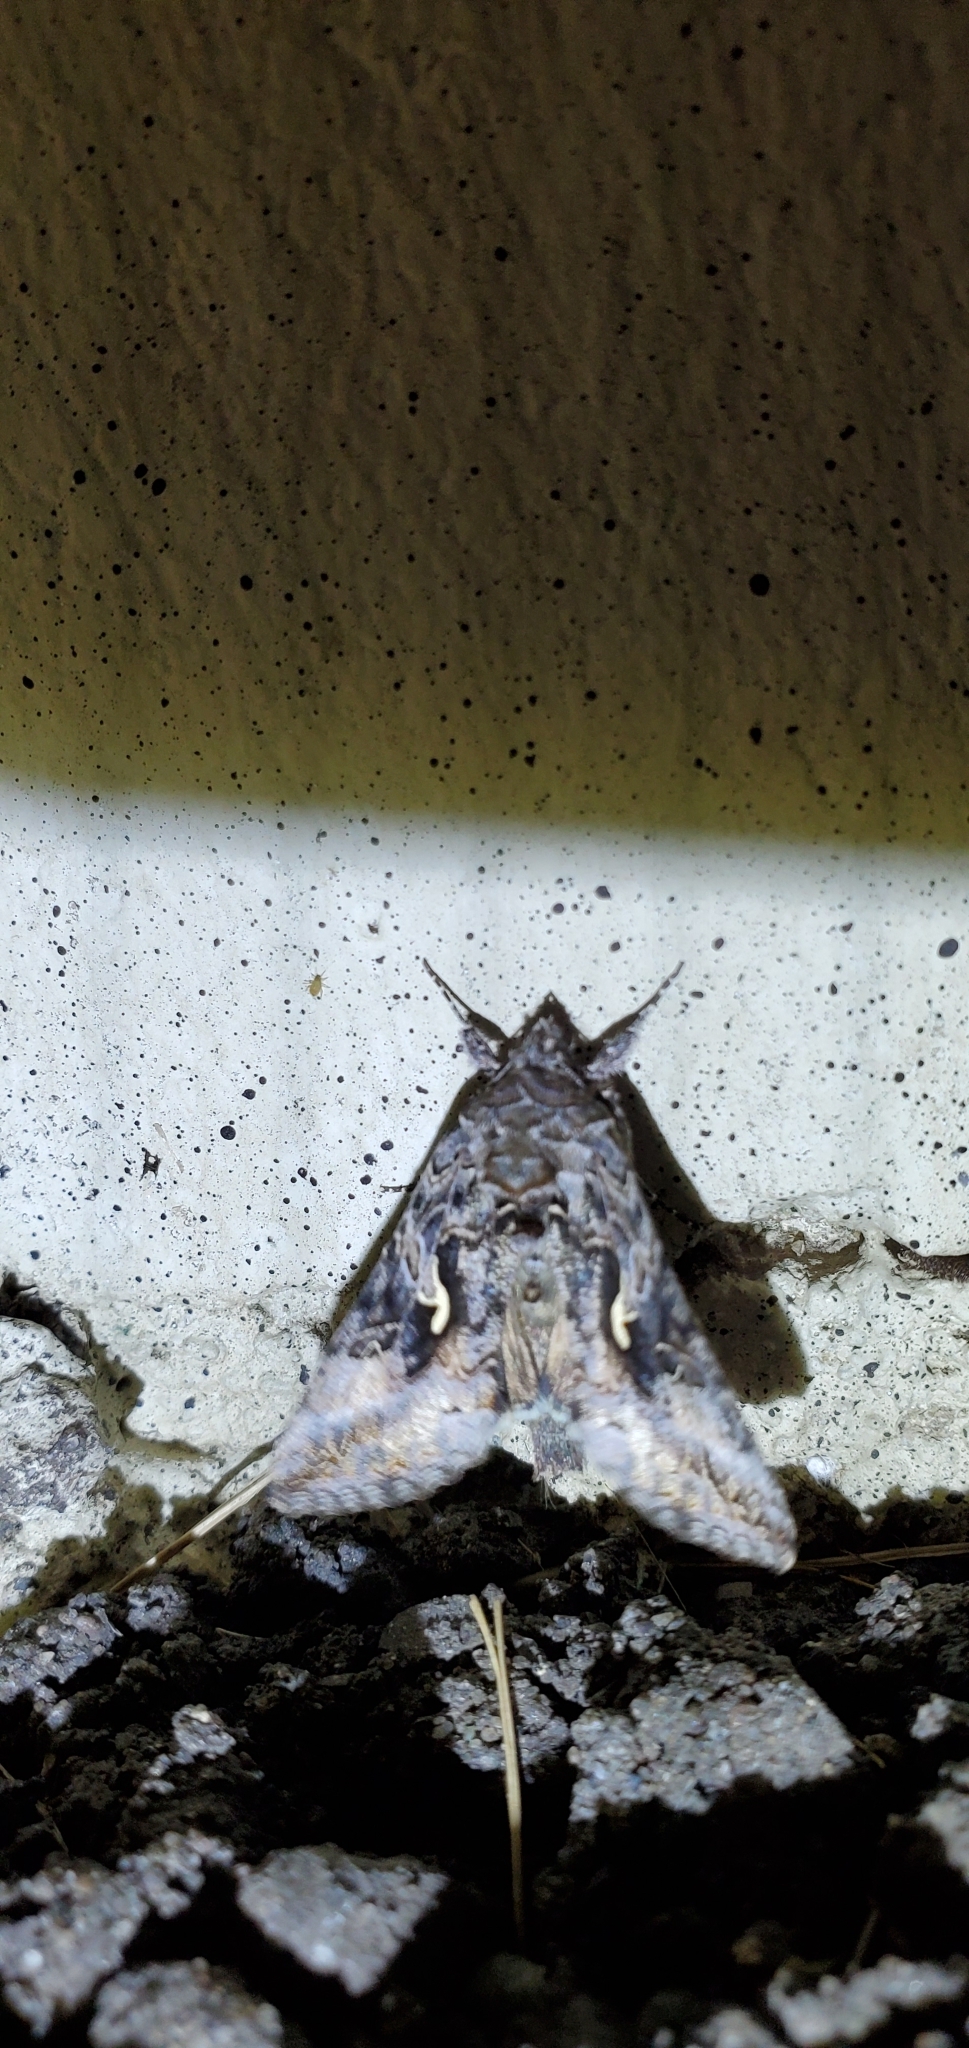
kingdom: Animalia
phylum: Arthropoda
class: Insecta
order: Lepidoptera
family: Noctuidae
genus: Autographa
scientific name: Autographa californica
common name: Alfalfa looper
